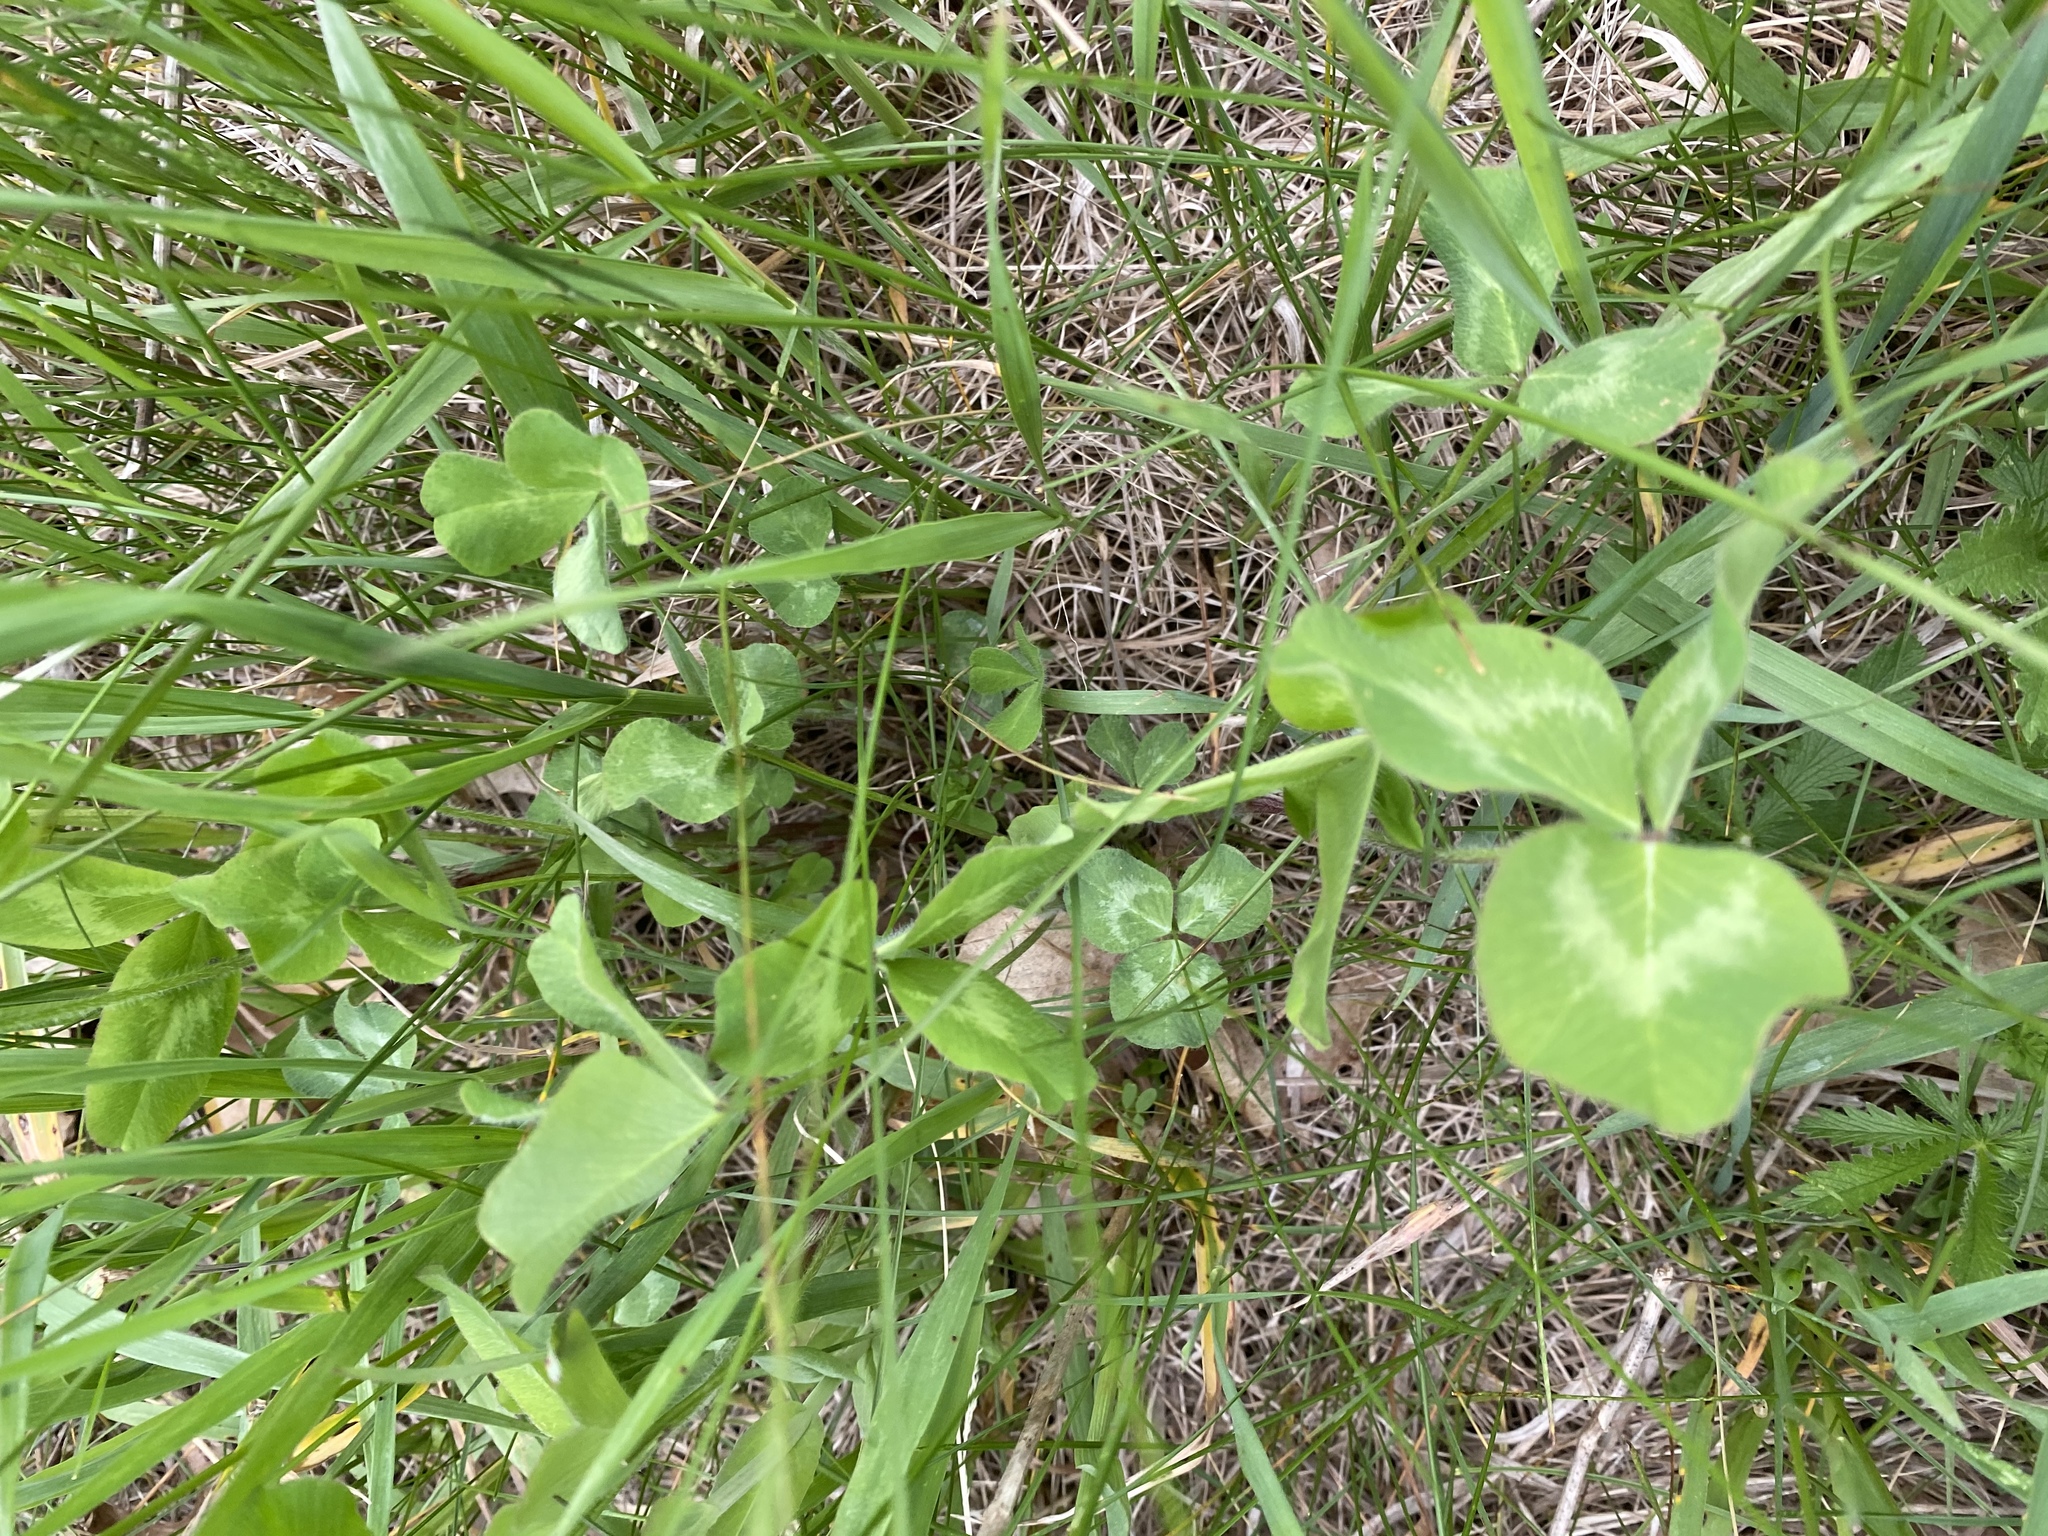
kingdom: Plantae
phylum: Tracheophyta
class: Magnoliopsida
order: Fabales
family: Fabaceae
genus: Trifolium
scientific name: Trifolium pratense
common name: Red clover
